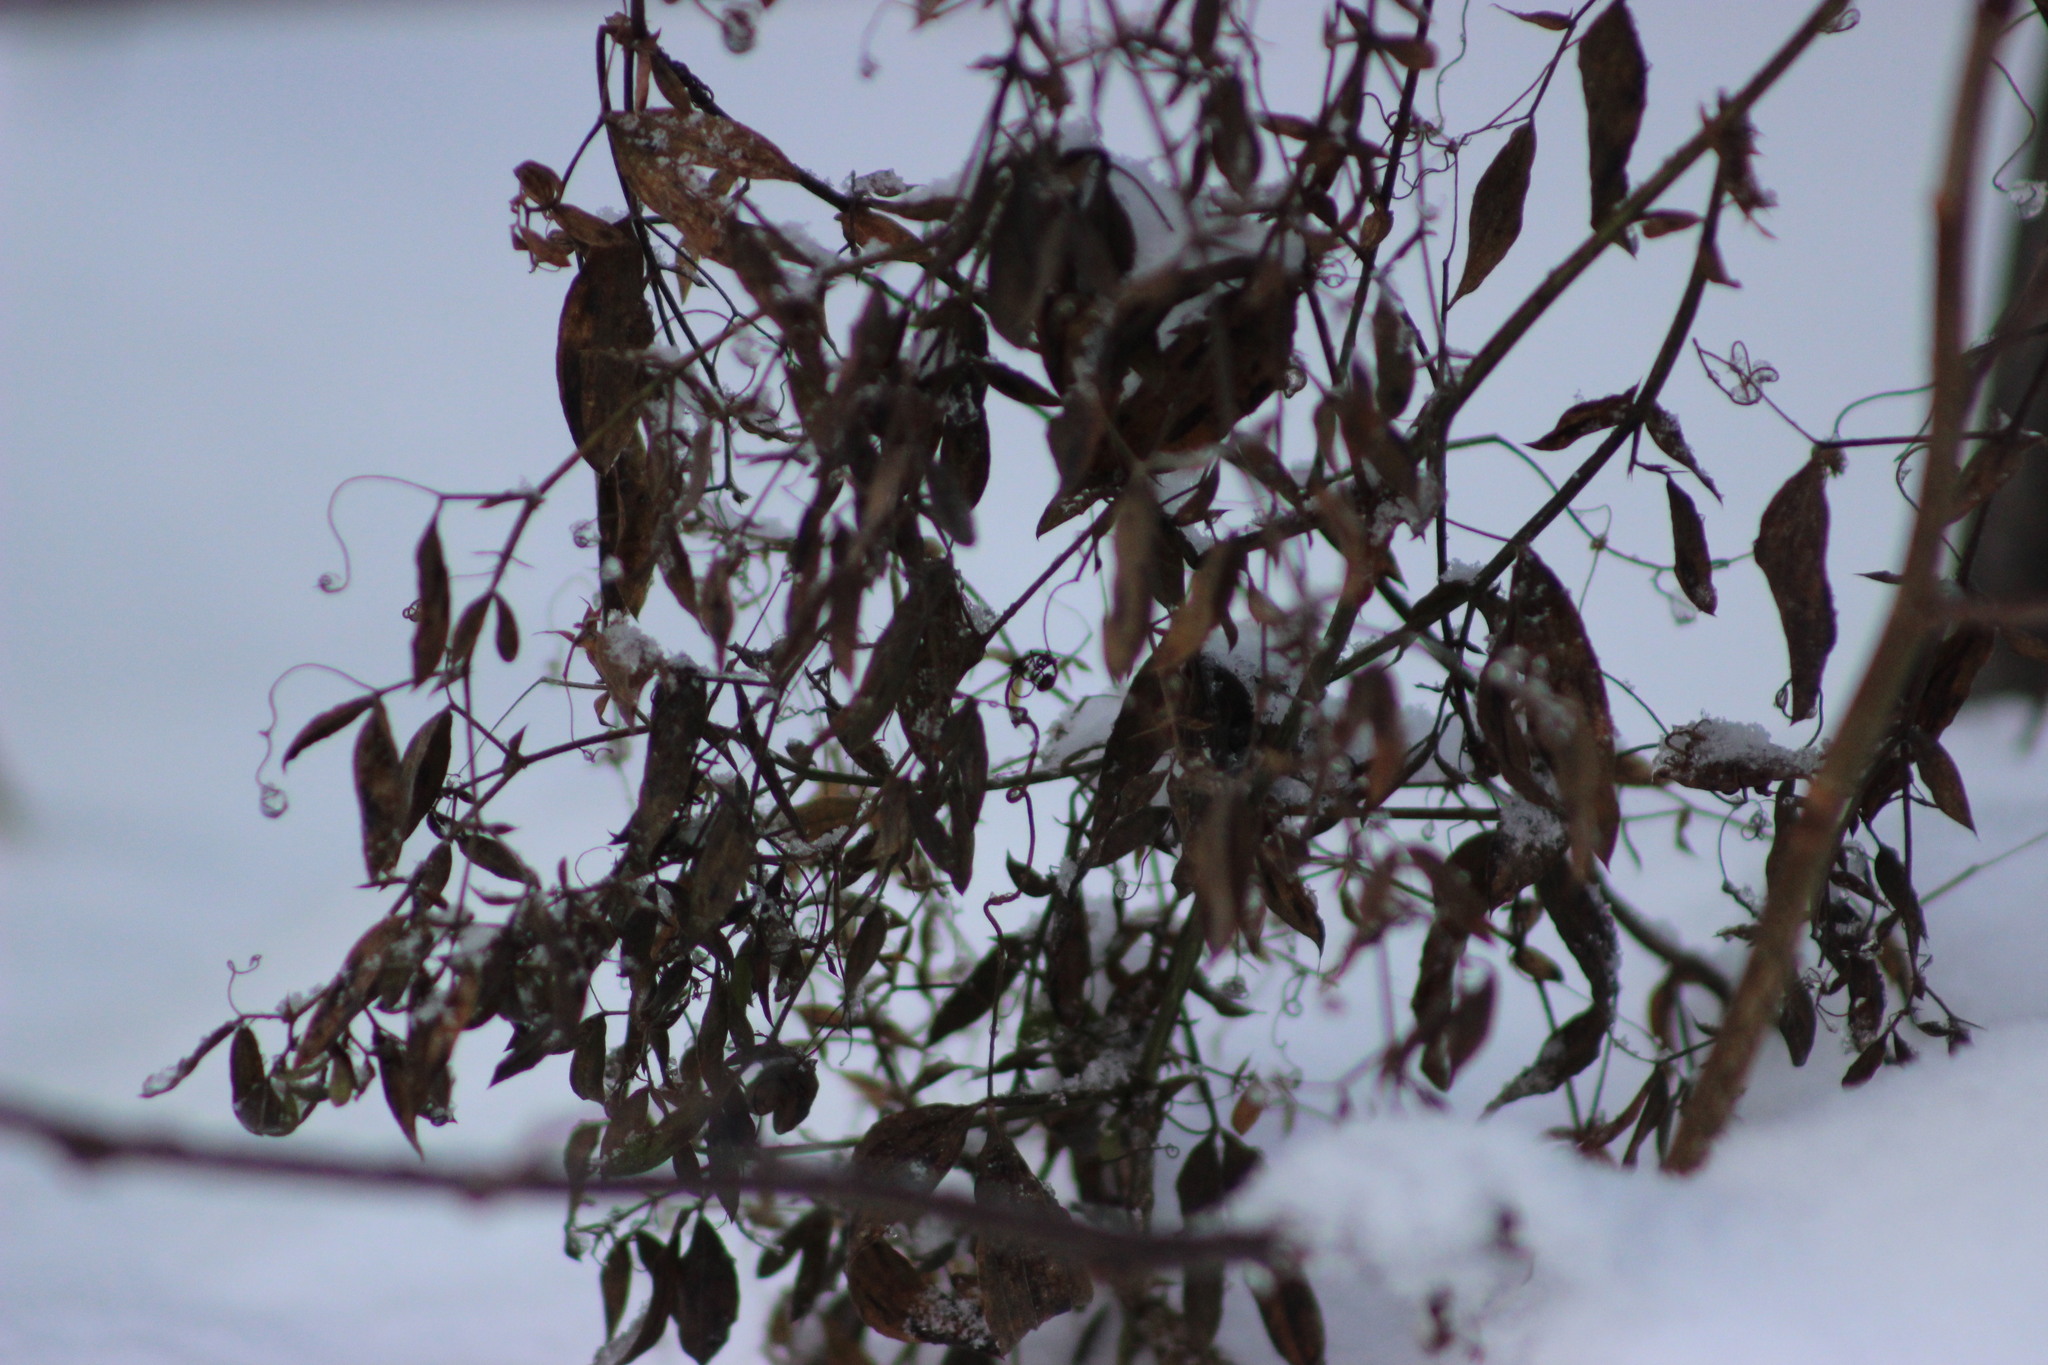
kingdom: Plantae
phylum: Tracheophyta
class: Magnoliopsida
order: Fabales
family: Fabaceae
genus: Lathyrus
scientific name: Lathyrus pratensis
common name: Meadow vetchling
